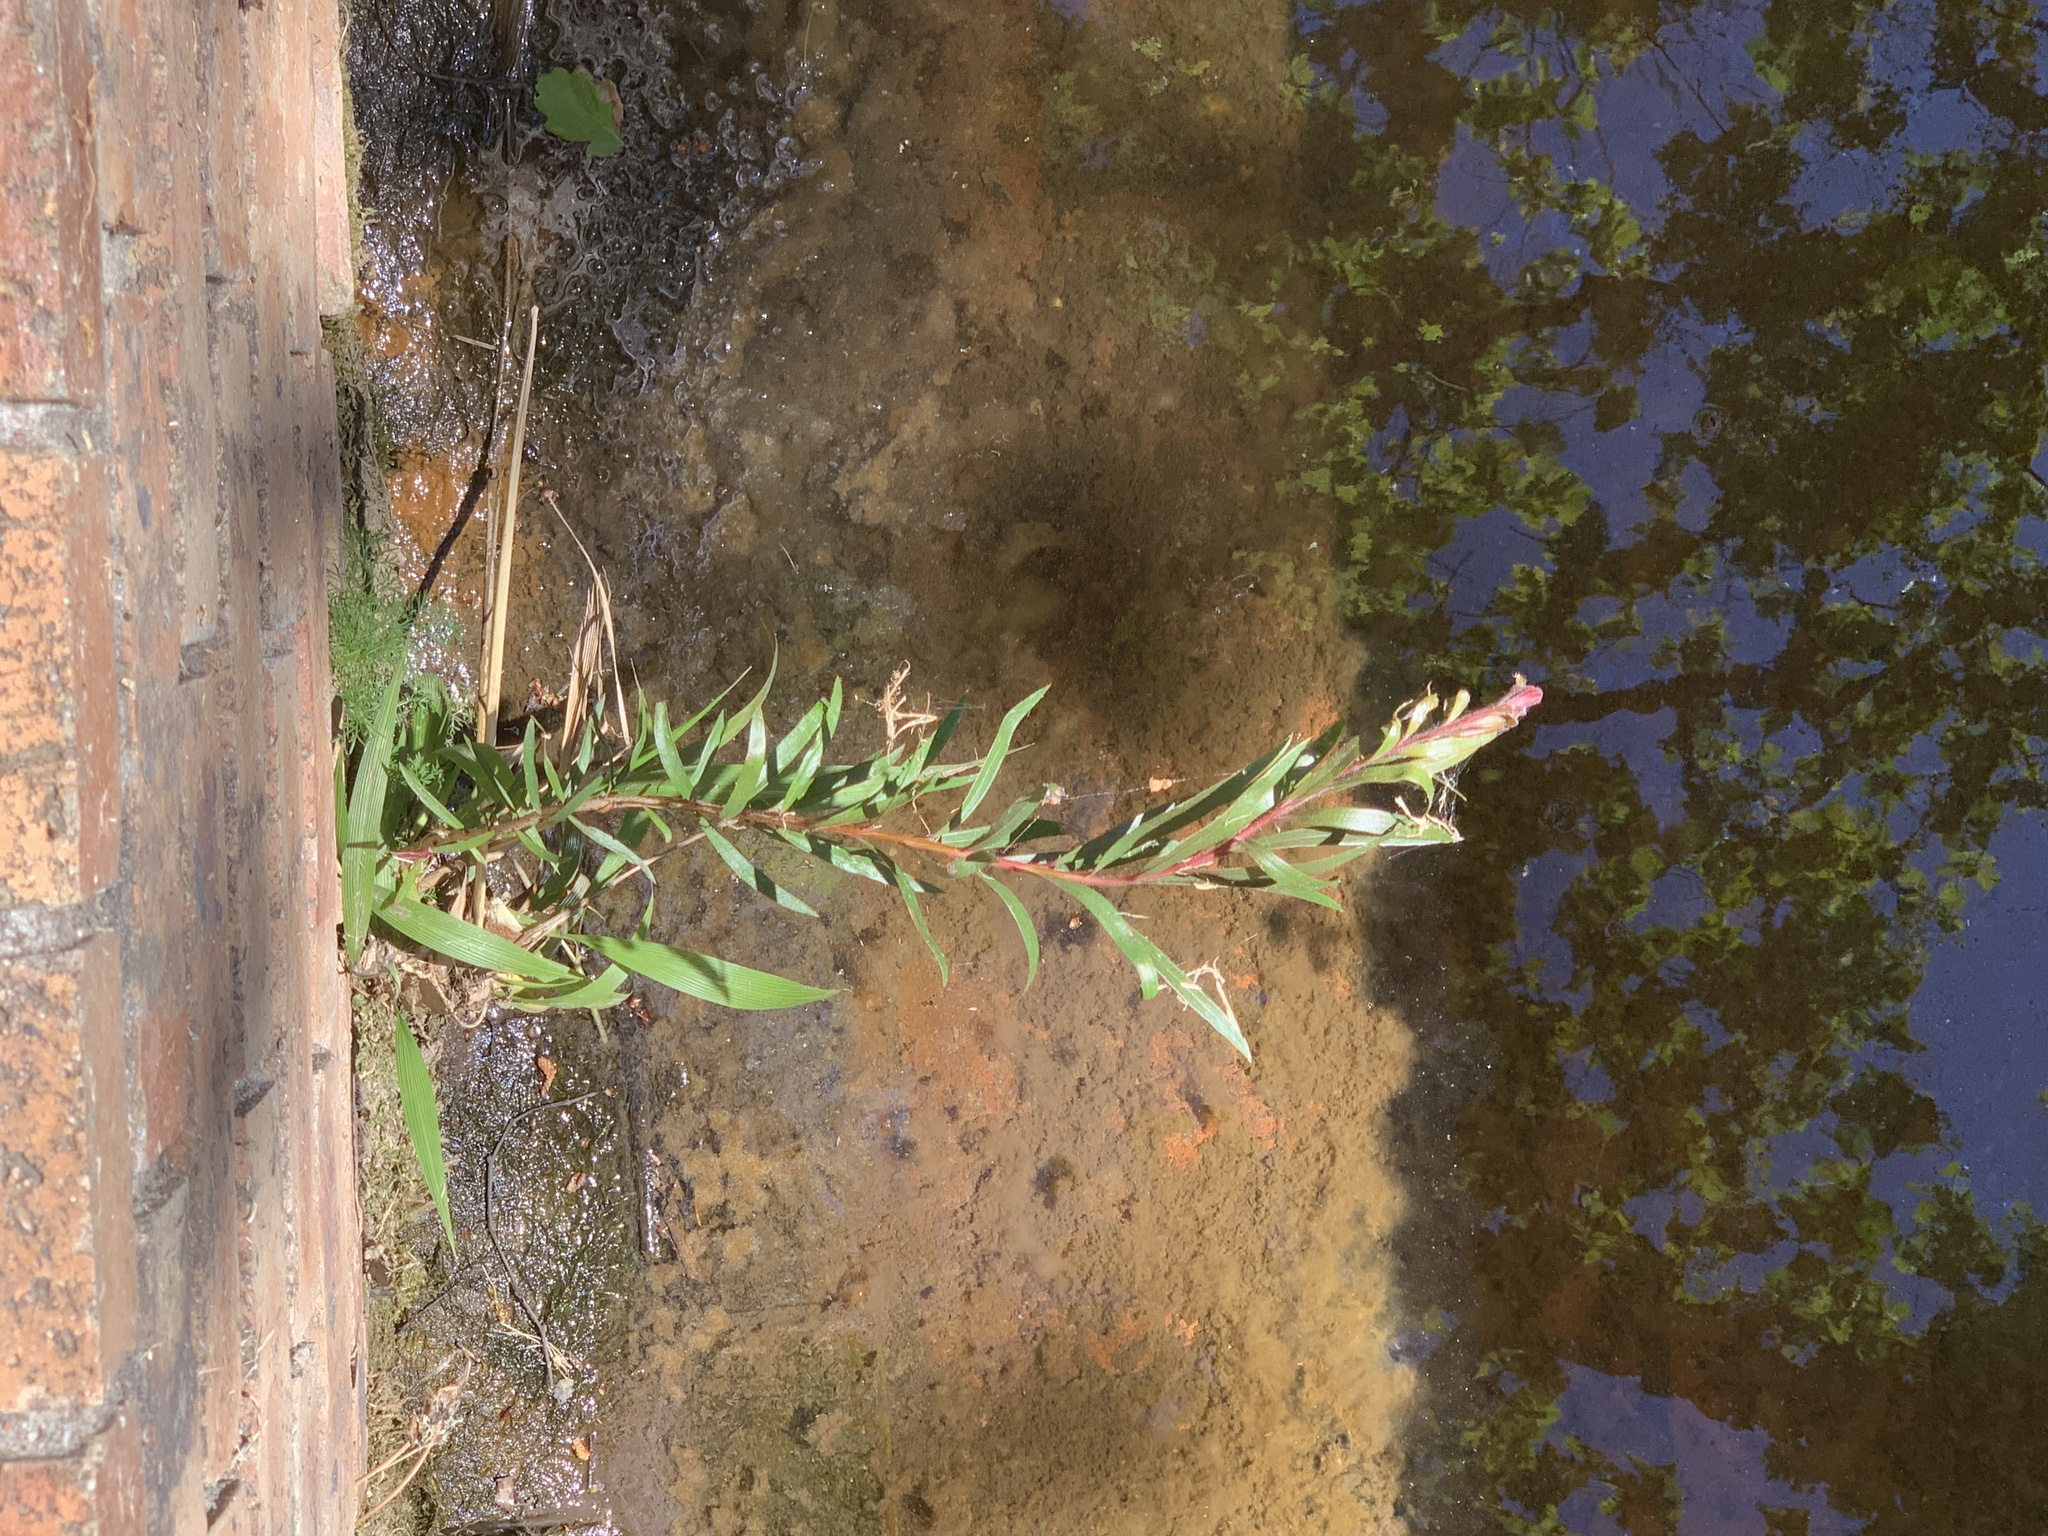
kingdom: Plantae
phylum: Tracheophyta
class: Magnoliopsida
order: Myrtales
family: Myrtaceae
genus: Callistemon
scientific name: Callistemon viminalis
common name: Drooping bottlebrush
